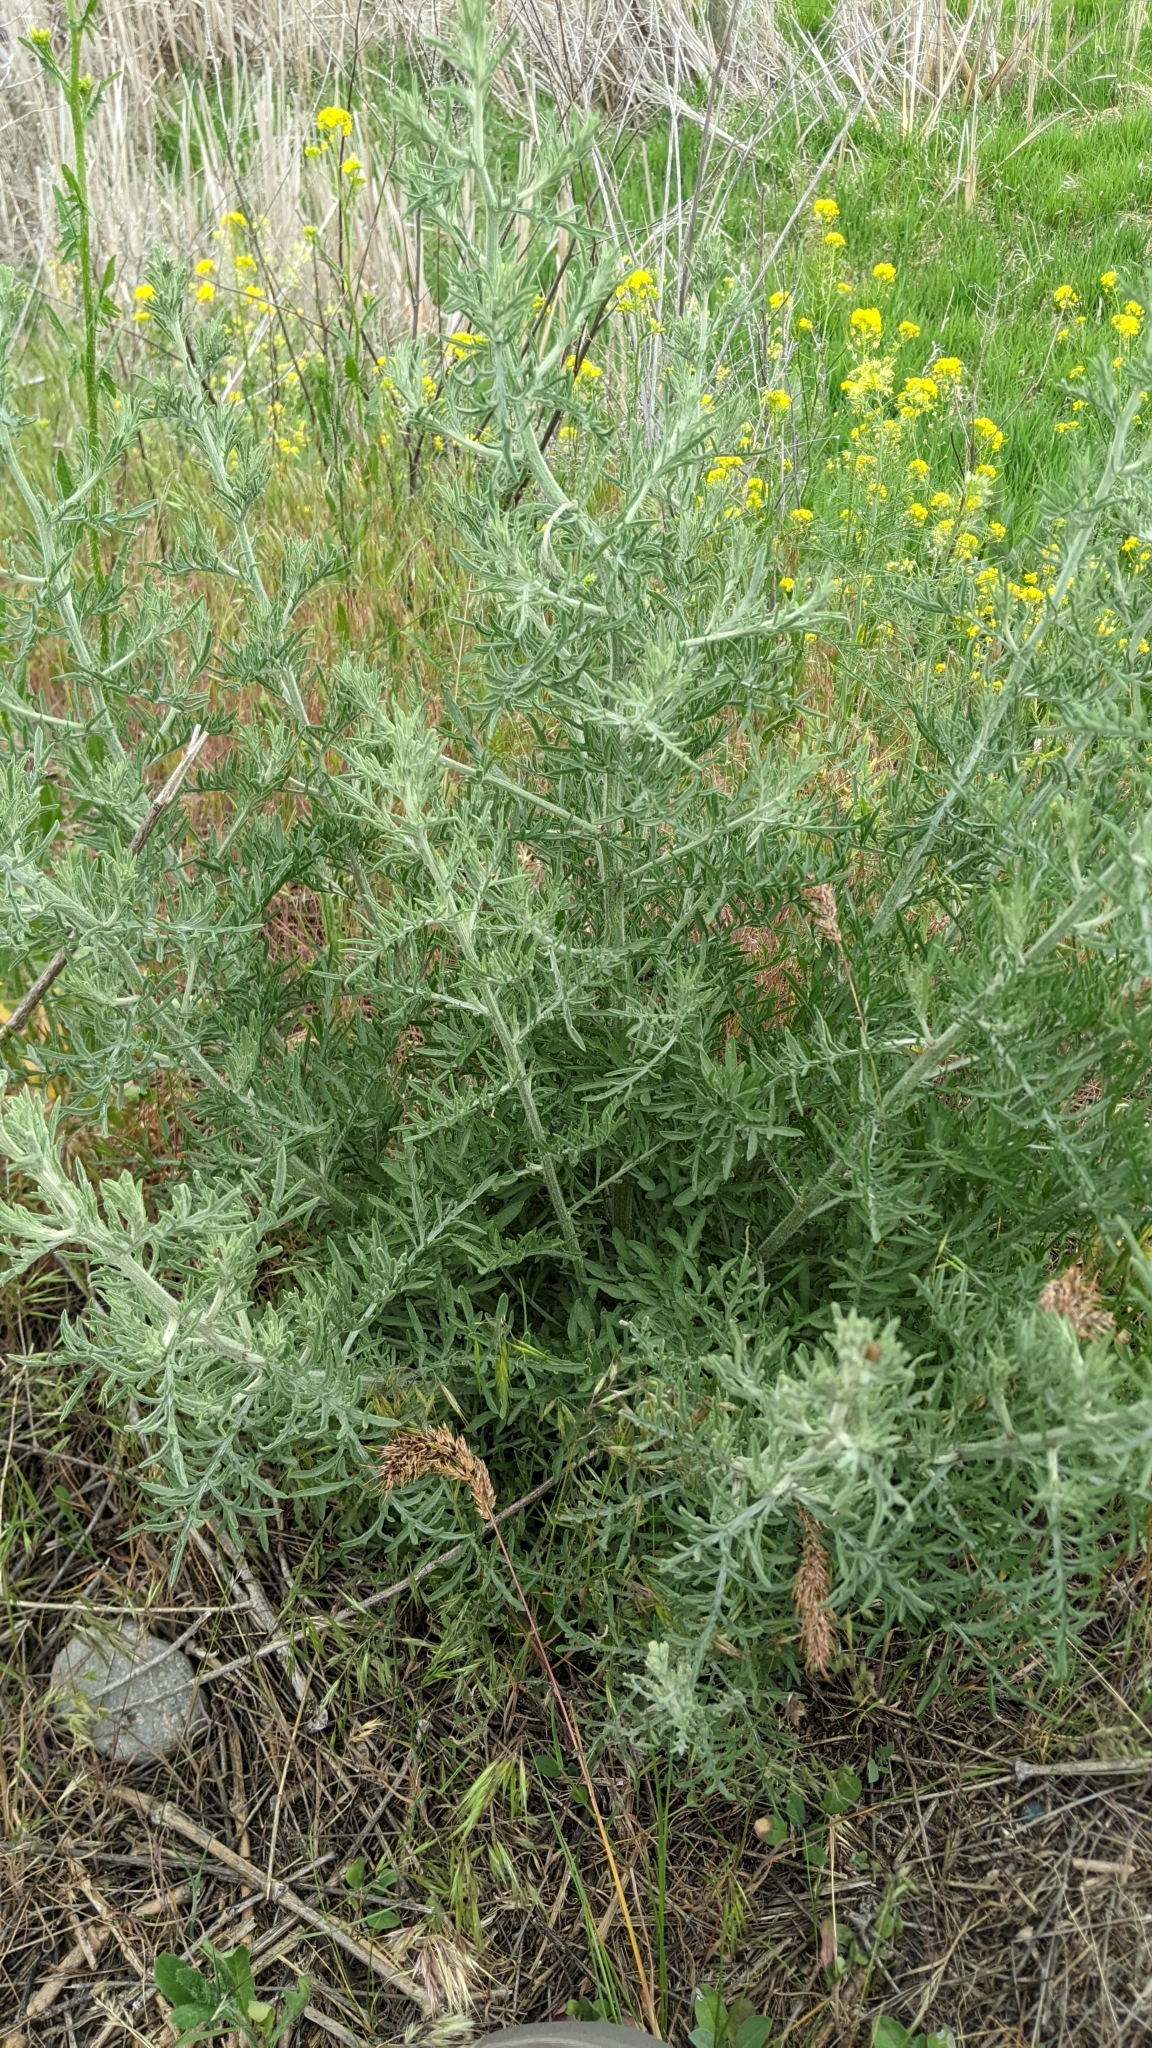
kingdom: Plantae
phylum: Tracheophyta
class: Magnoliopsida
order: Asterales
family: Asteraceae
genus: Centaurea
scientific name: Centaurea diffusa
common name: Diffuse knapweed
